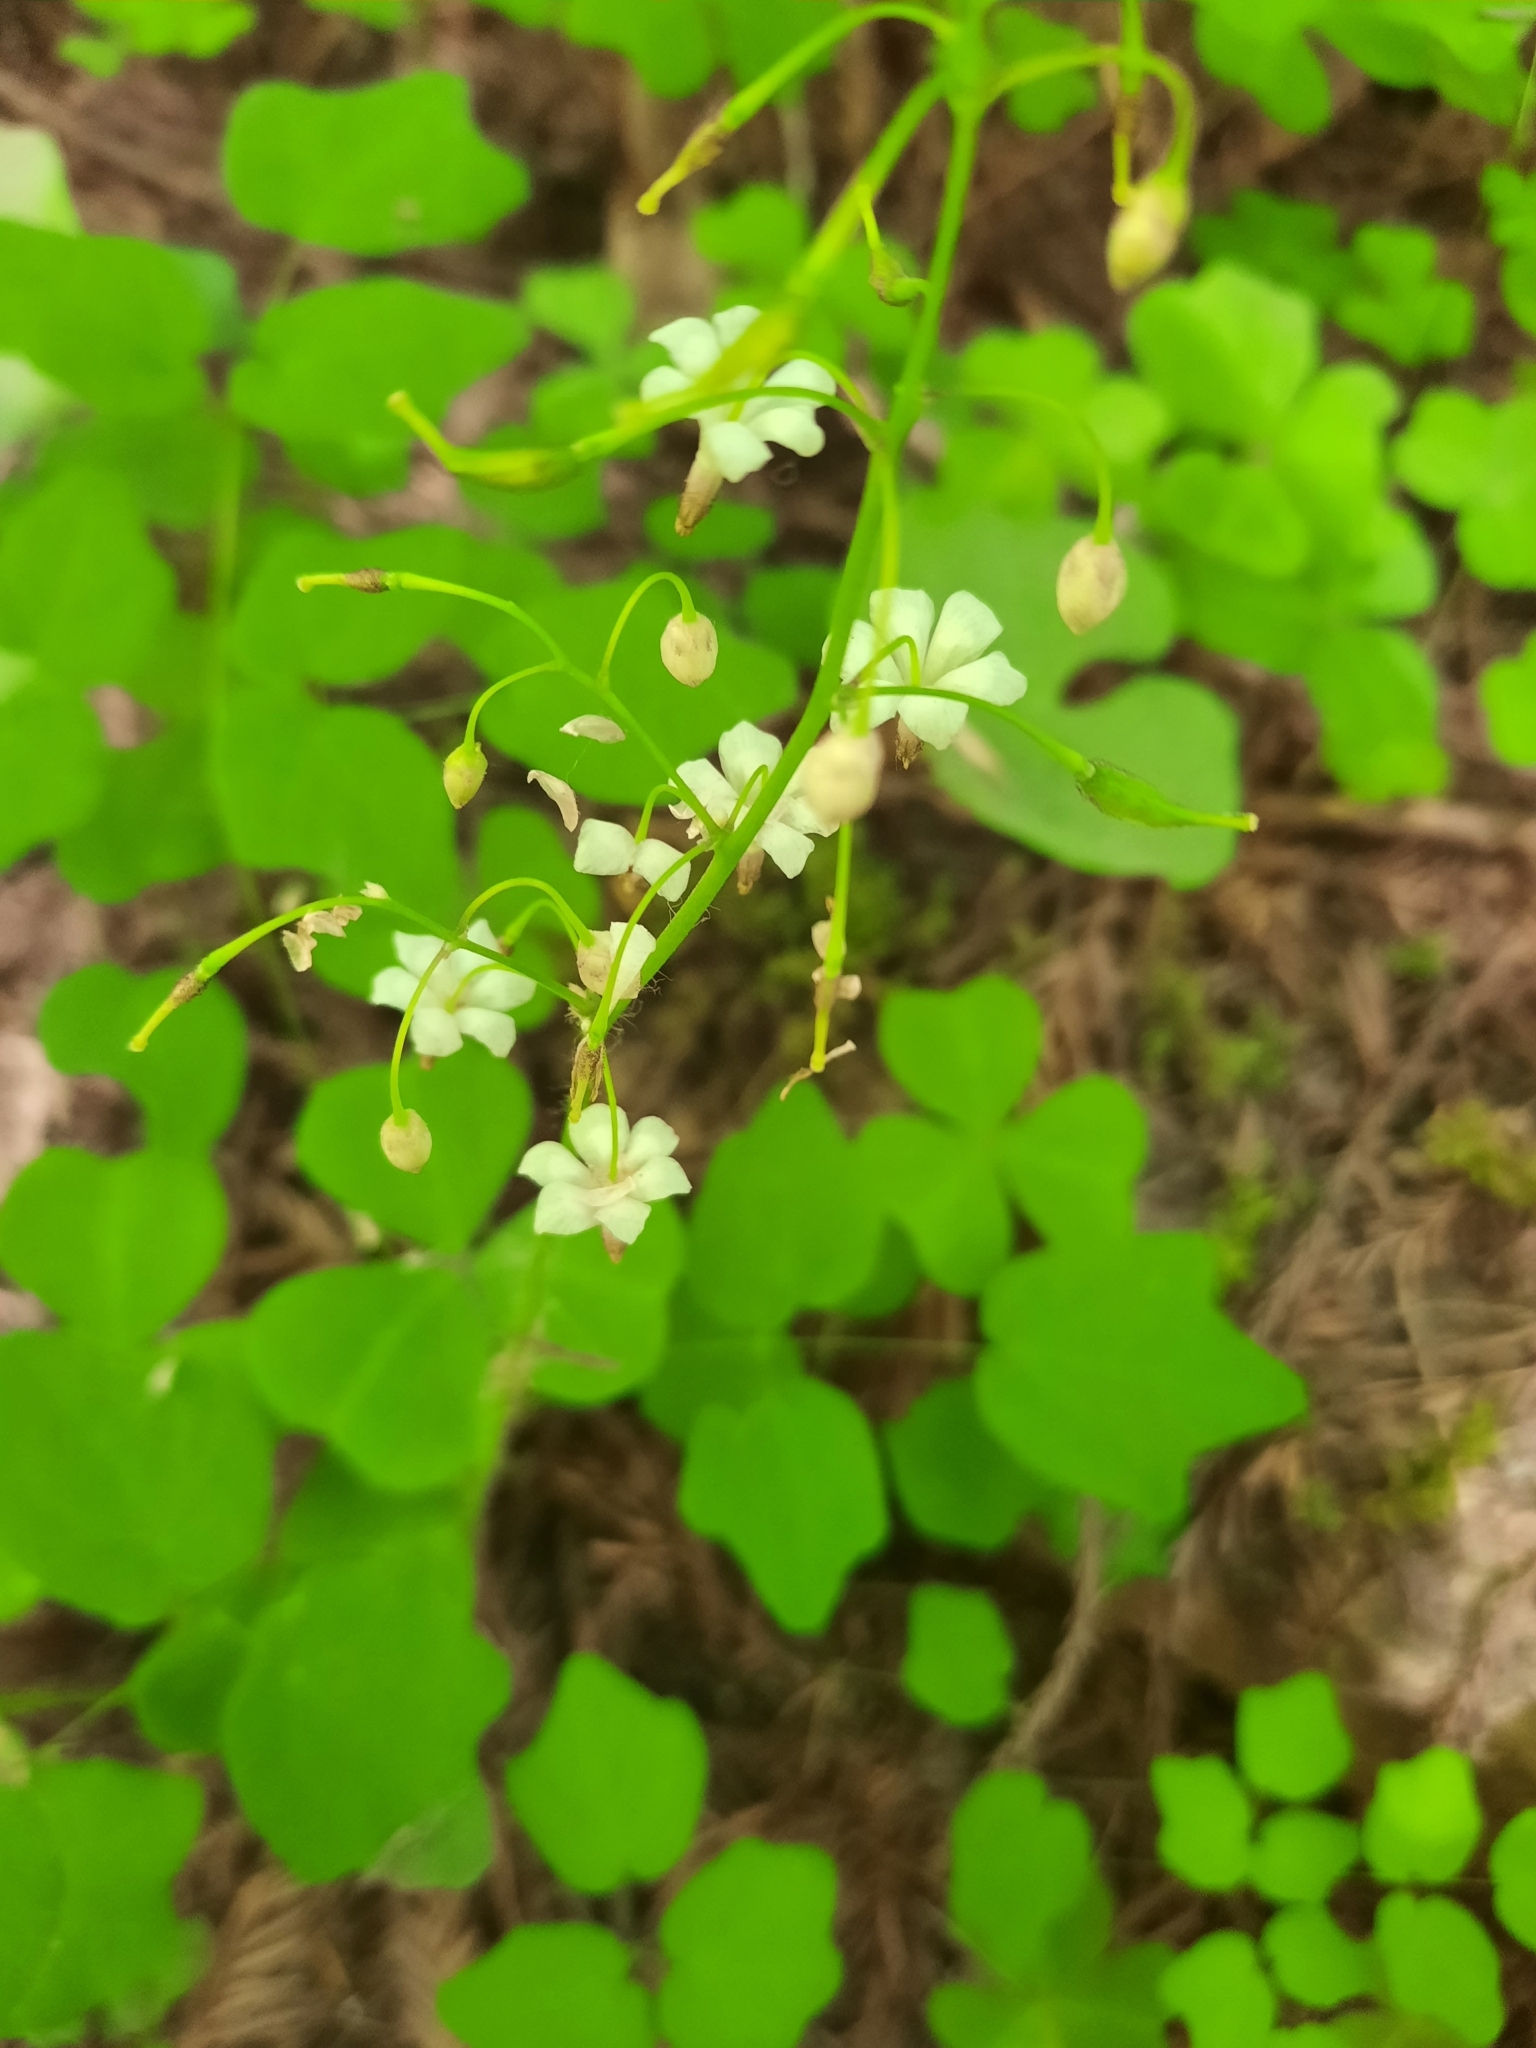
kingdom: Plantae
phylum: Tracheophyta
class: Magnoliopsida
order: Ranunculales
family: Berberidaceae
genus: Vancouveria
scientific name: Vancouveria hexandra
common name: Northern inside-out-flower
